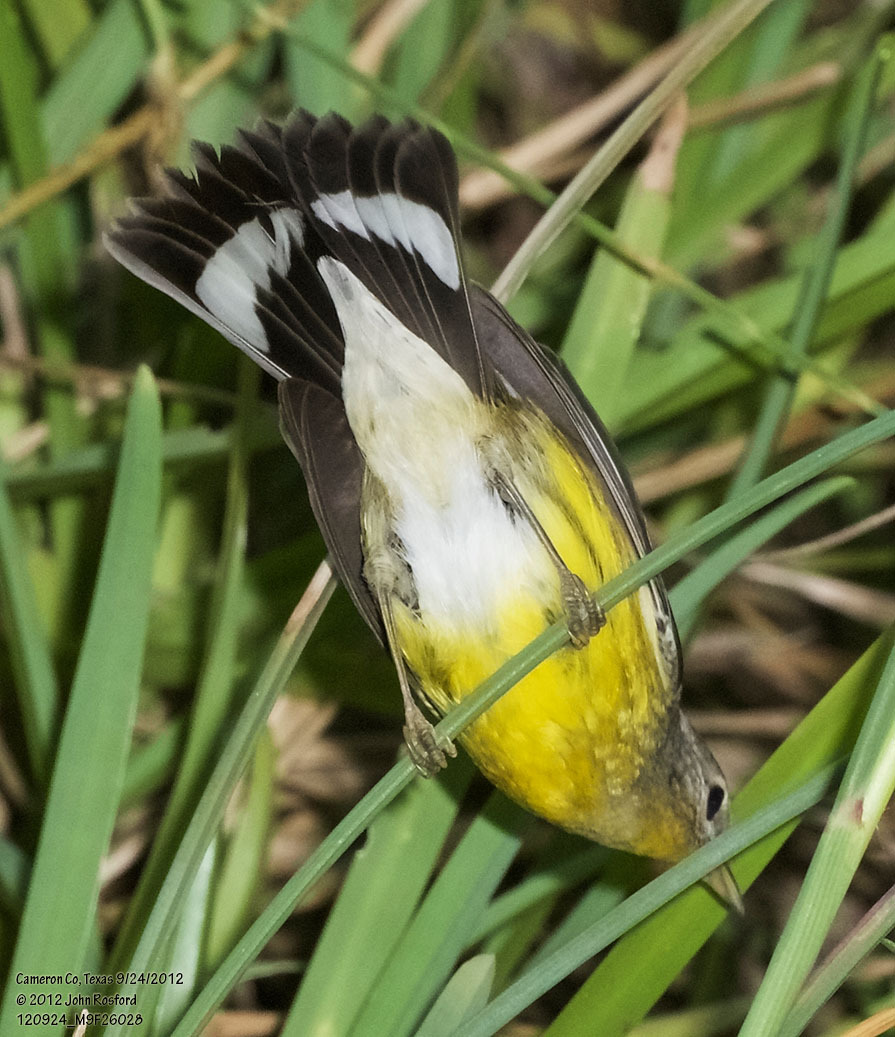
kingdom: Animalia
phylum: Chordata
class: Aves
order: Passeriformes
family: Parulidae
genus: Setophaga
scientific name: Setophaga magnolia
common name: Magnolia warbler
